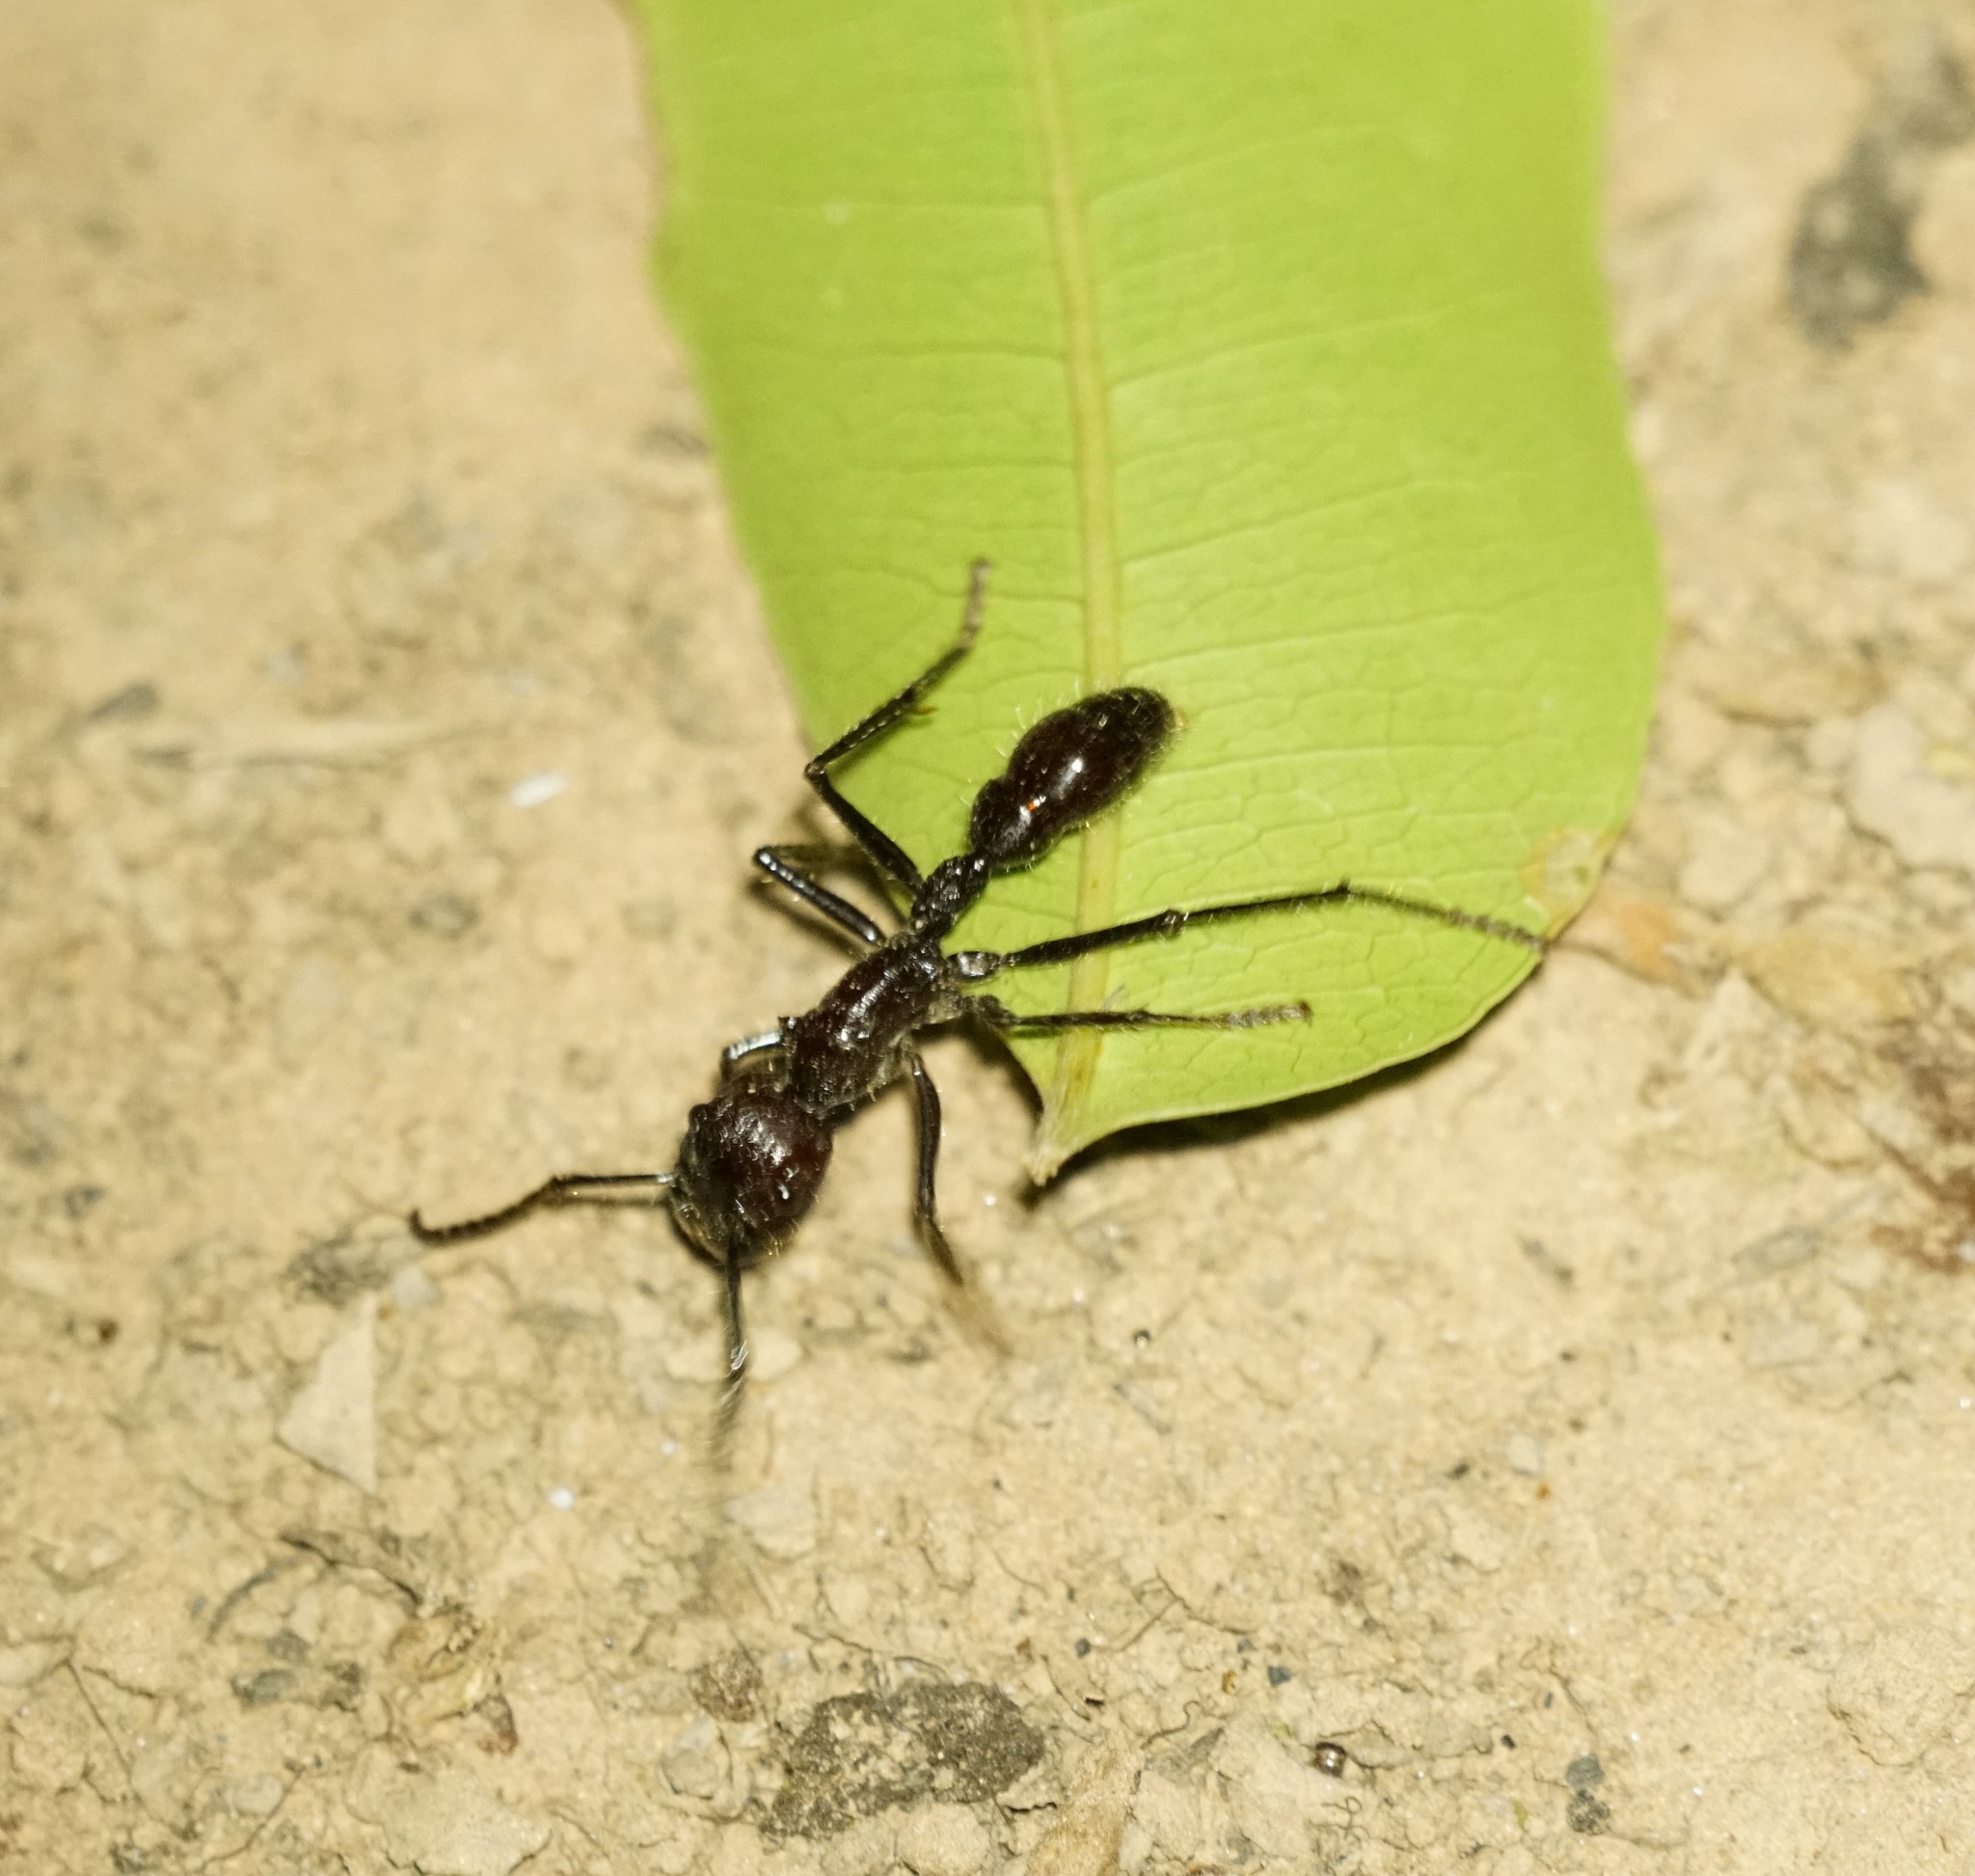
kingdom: Animalia
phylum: Arthropoda
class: Insecta
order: Hymenoptera
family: Formicidae
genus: Paraponera
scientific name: Paraponera clavata
